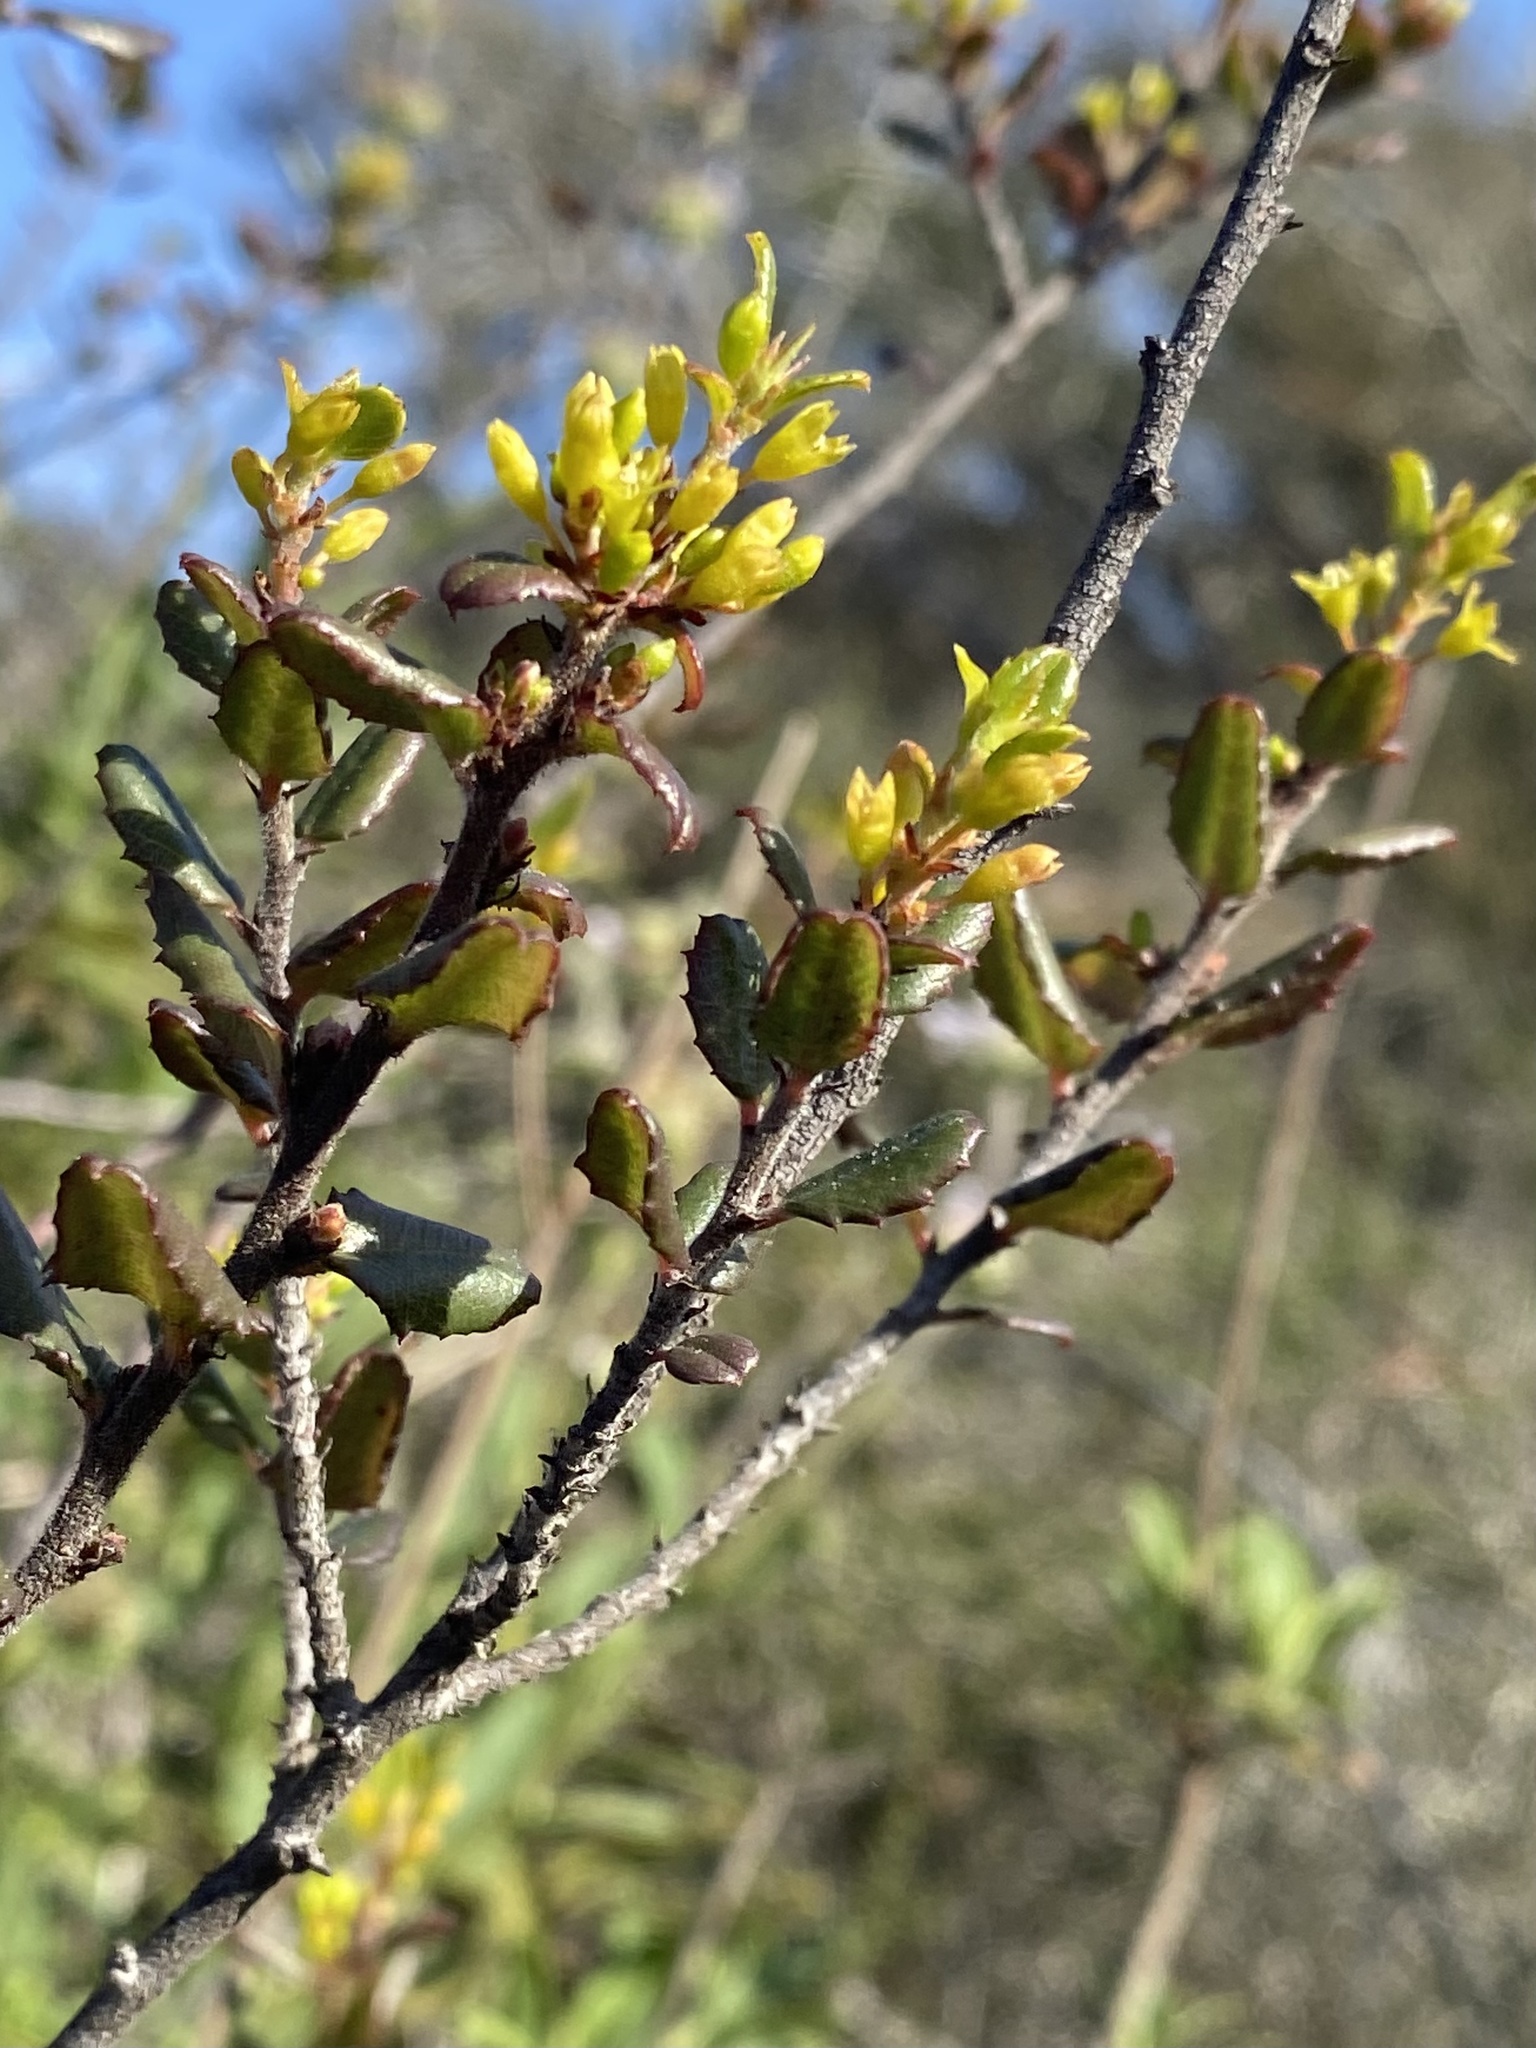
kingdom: Plantae
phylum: Tracheophyta
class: Magnoliopsida
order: Rosales
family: Rhamnaceae
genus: Endotropis
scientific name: Endotropis crocea
